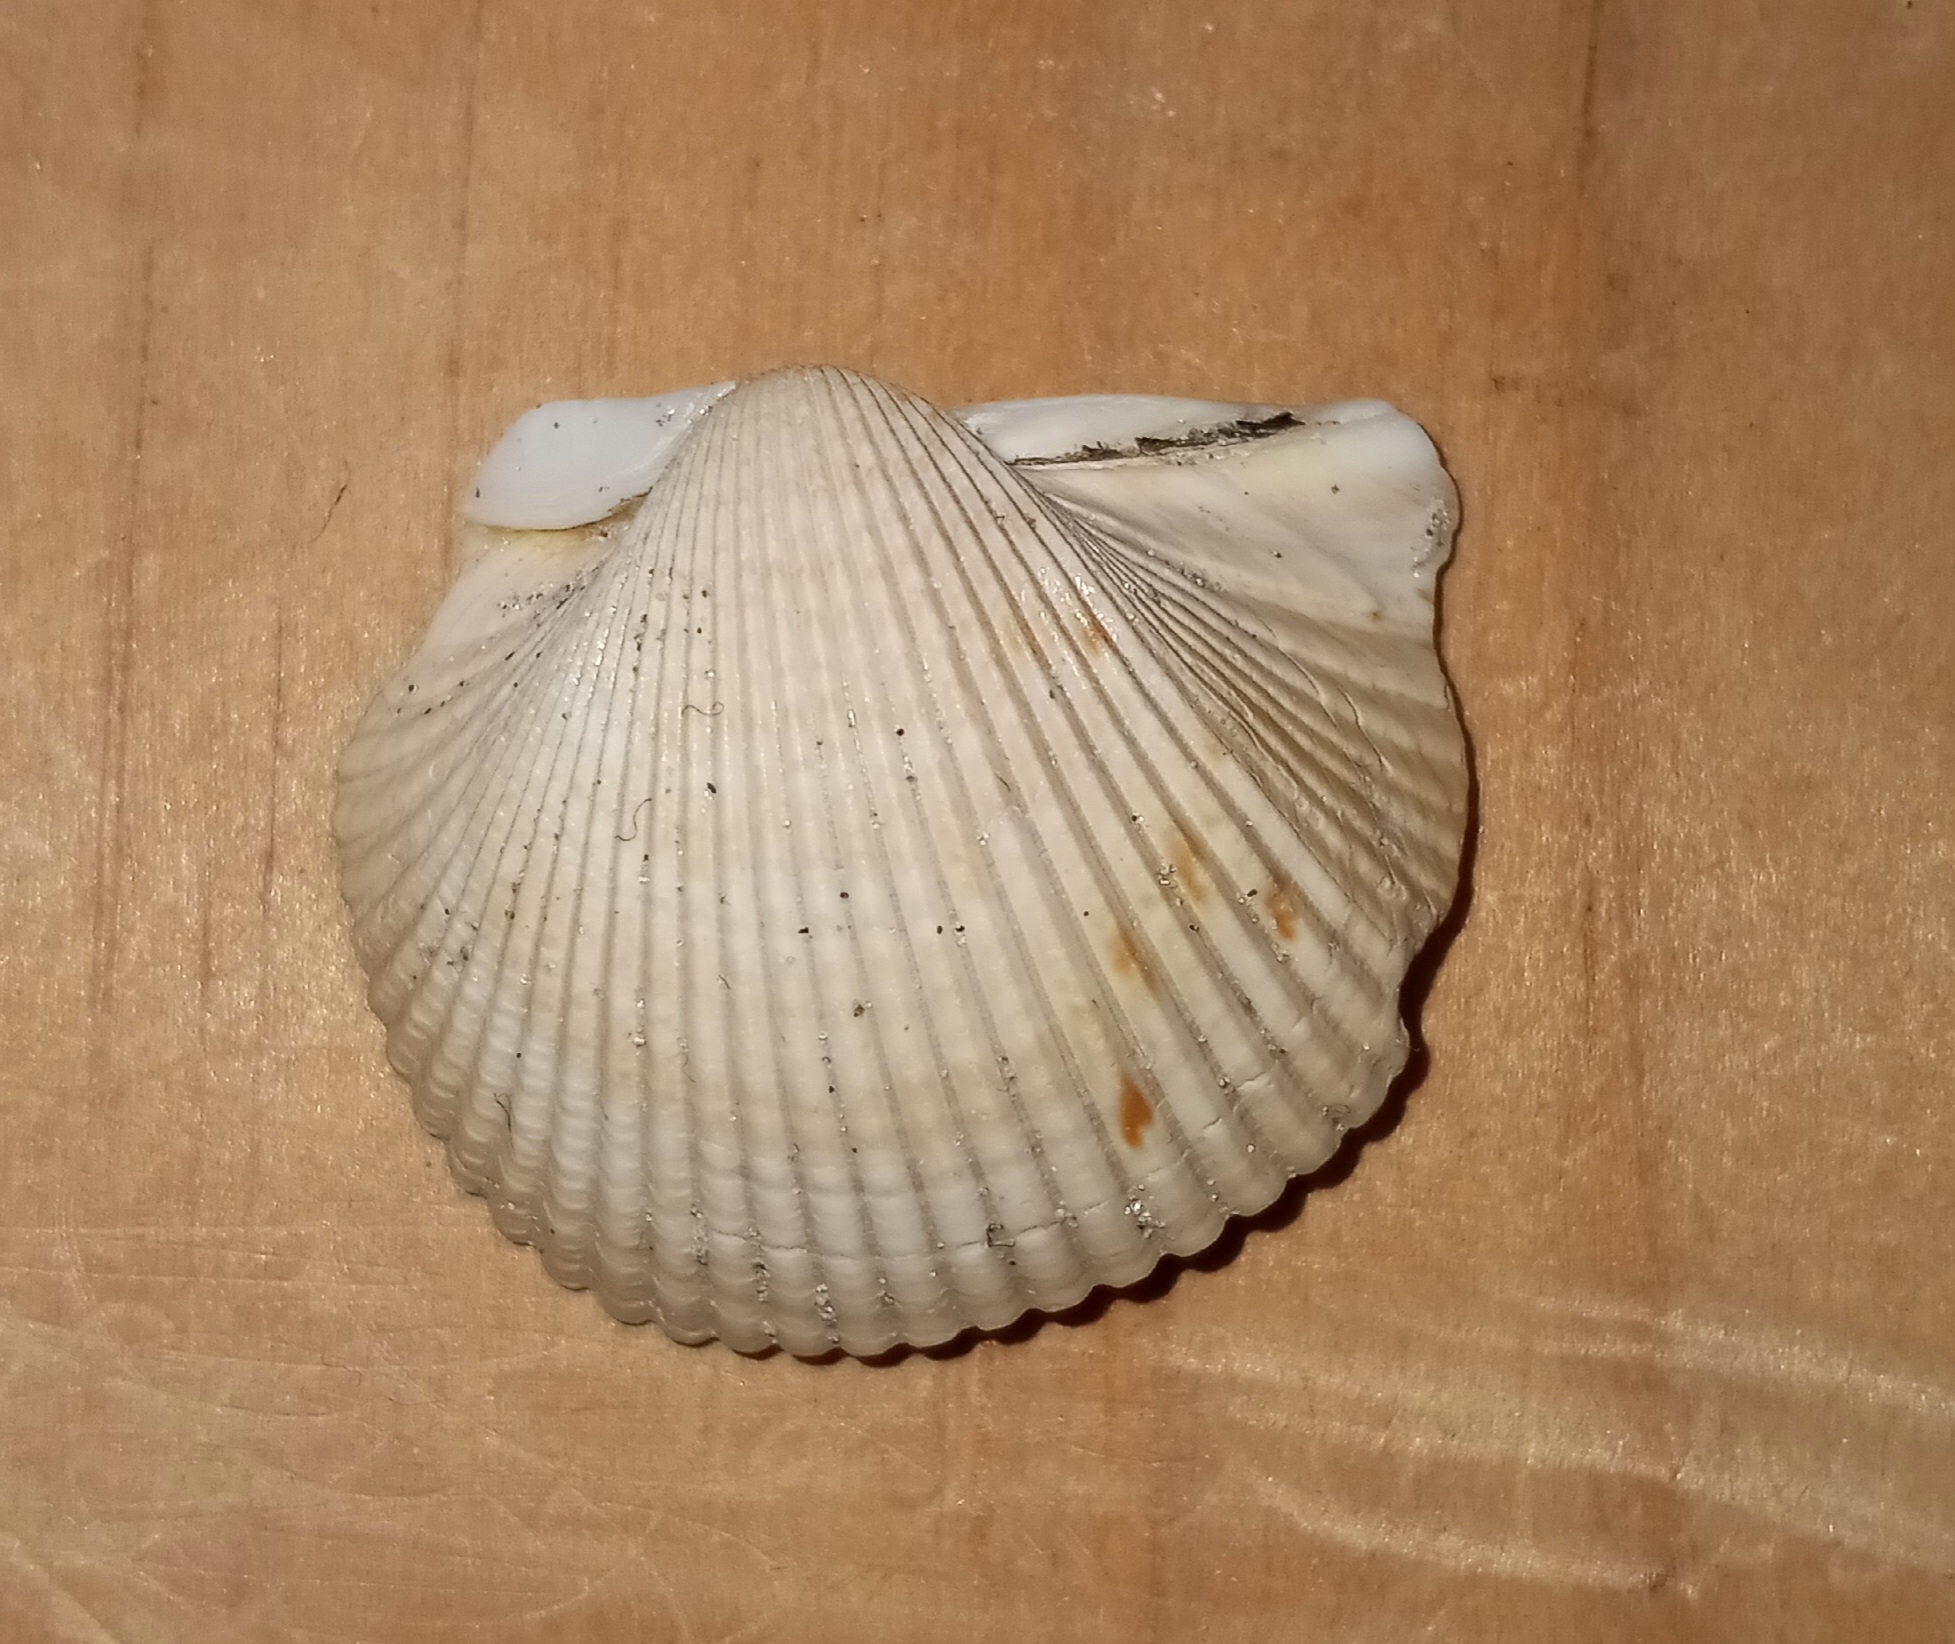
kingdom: Animalia
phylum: Mollusca
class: Bivalvia
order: Cardiida
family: Cardiidae
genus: Dinocardium
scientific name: Dinocardium robustum
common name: Atlantic giant cockle
